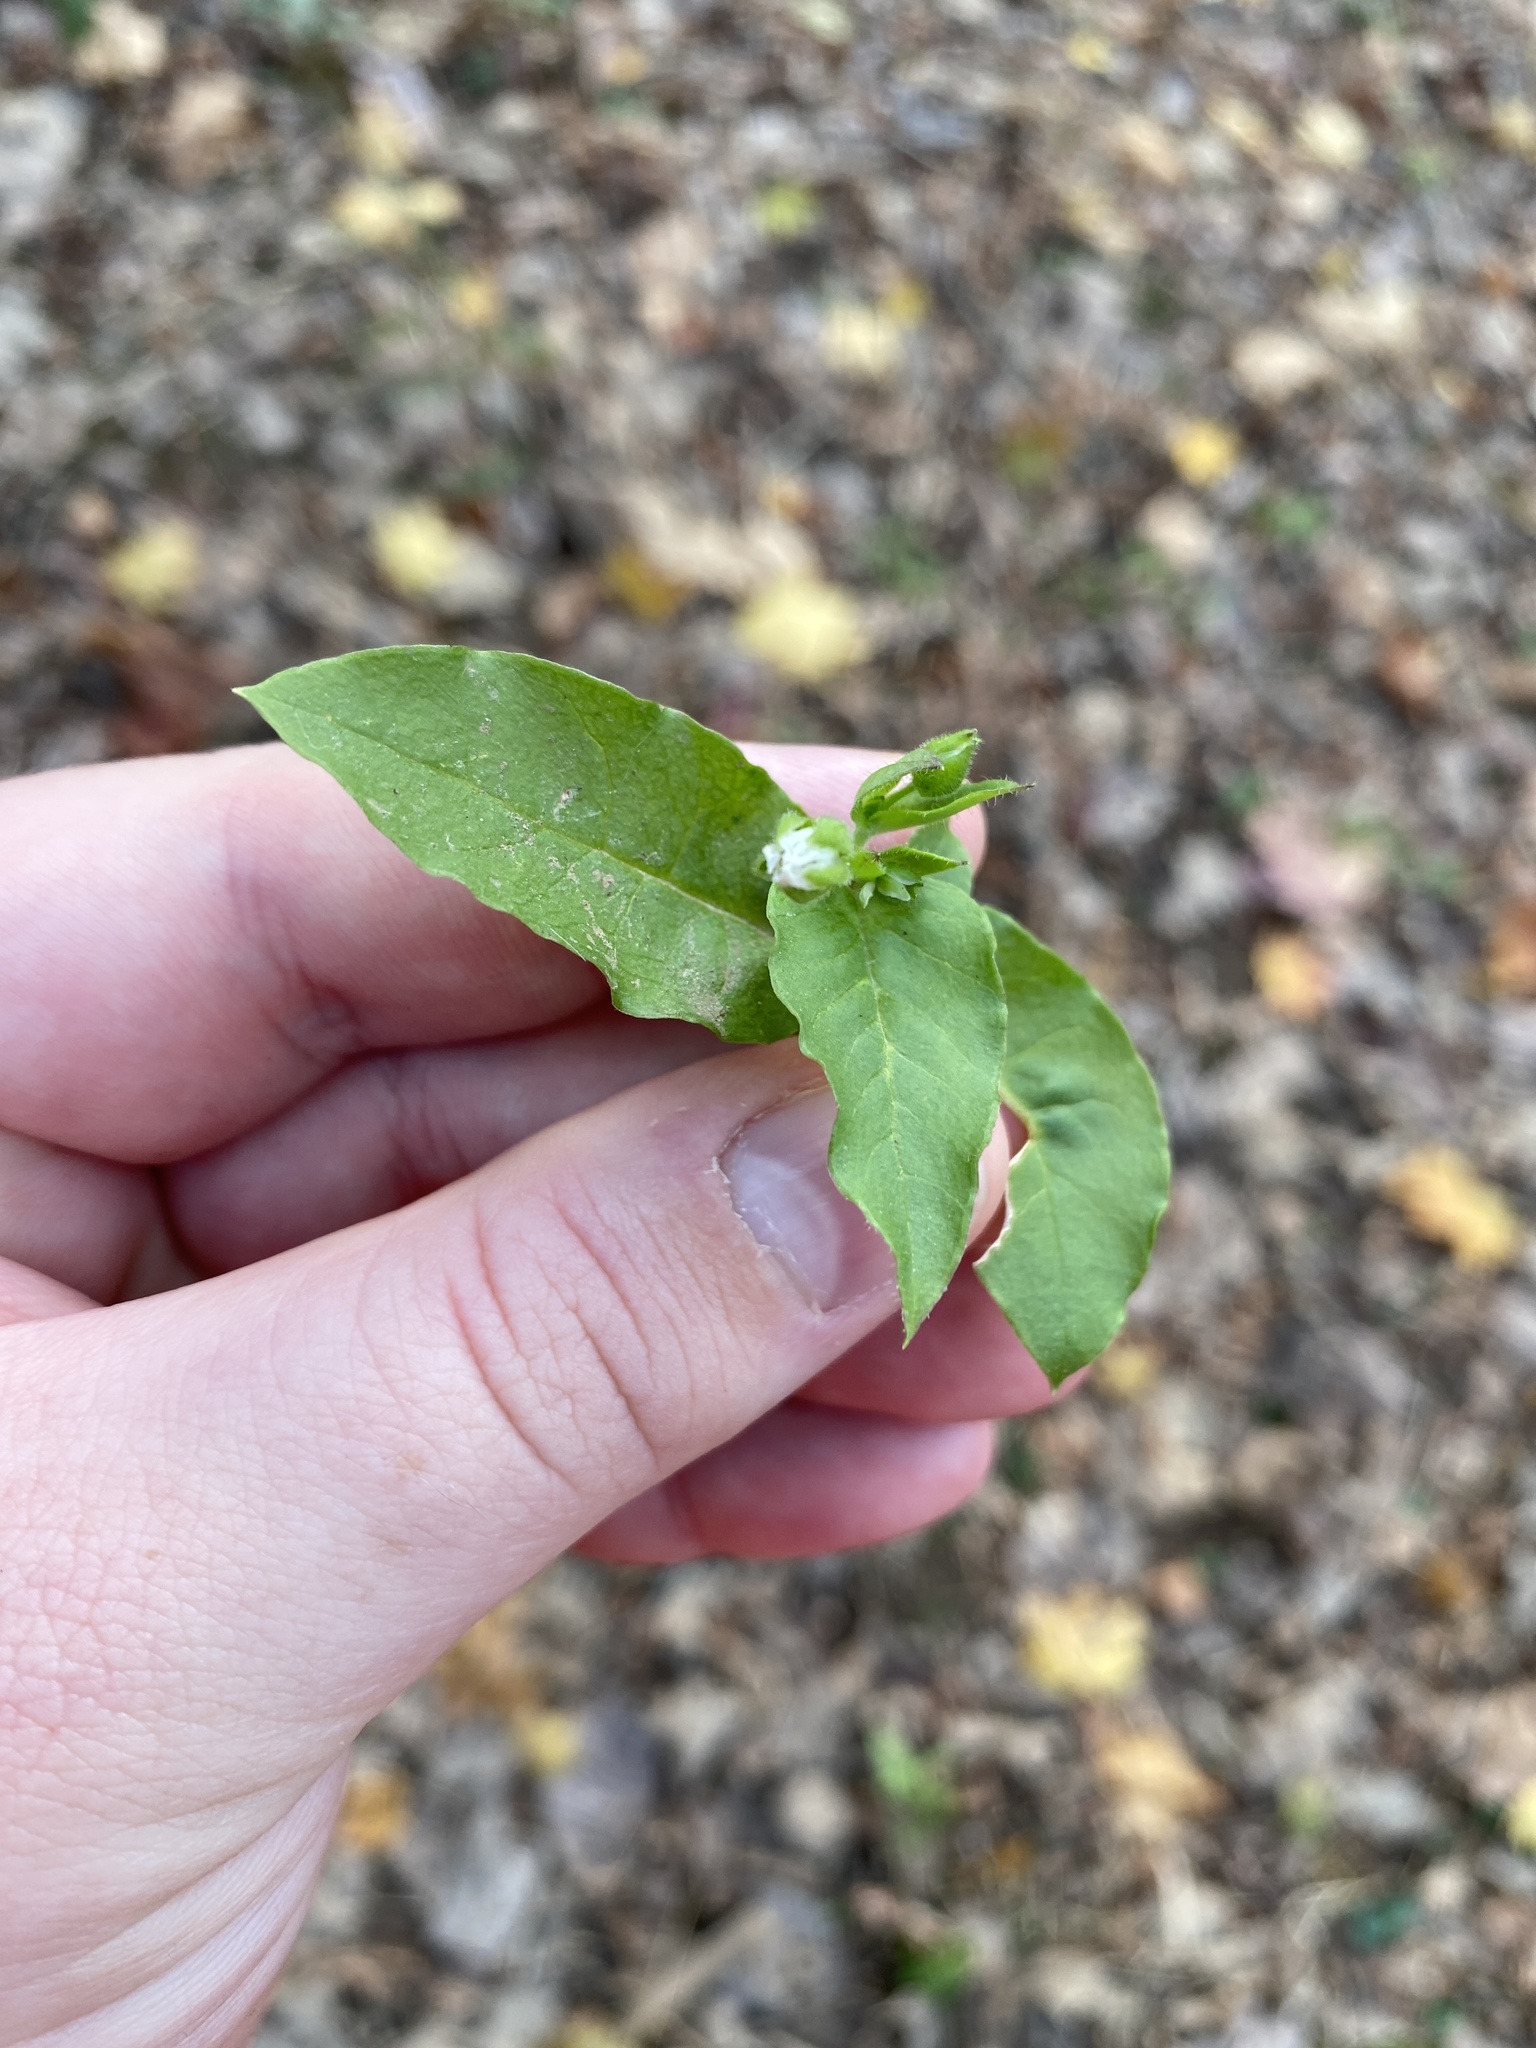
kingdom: Plantae
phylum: Tracheophyta
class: Magnoliopsida
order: Caryophyllales
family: Caryophyllaceae
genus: Stellaria
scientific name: Stellaria aquatica
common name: Water chickweed
